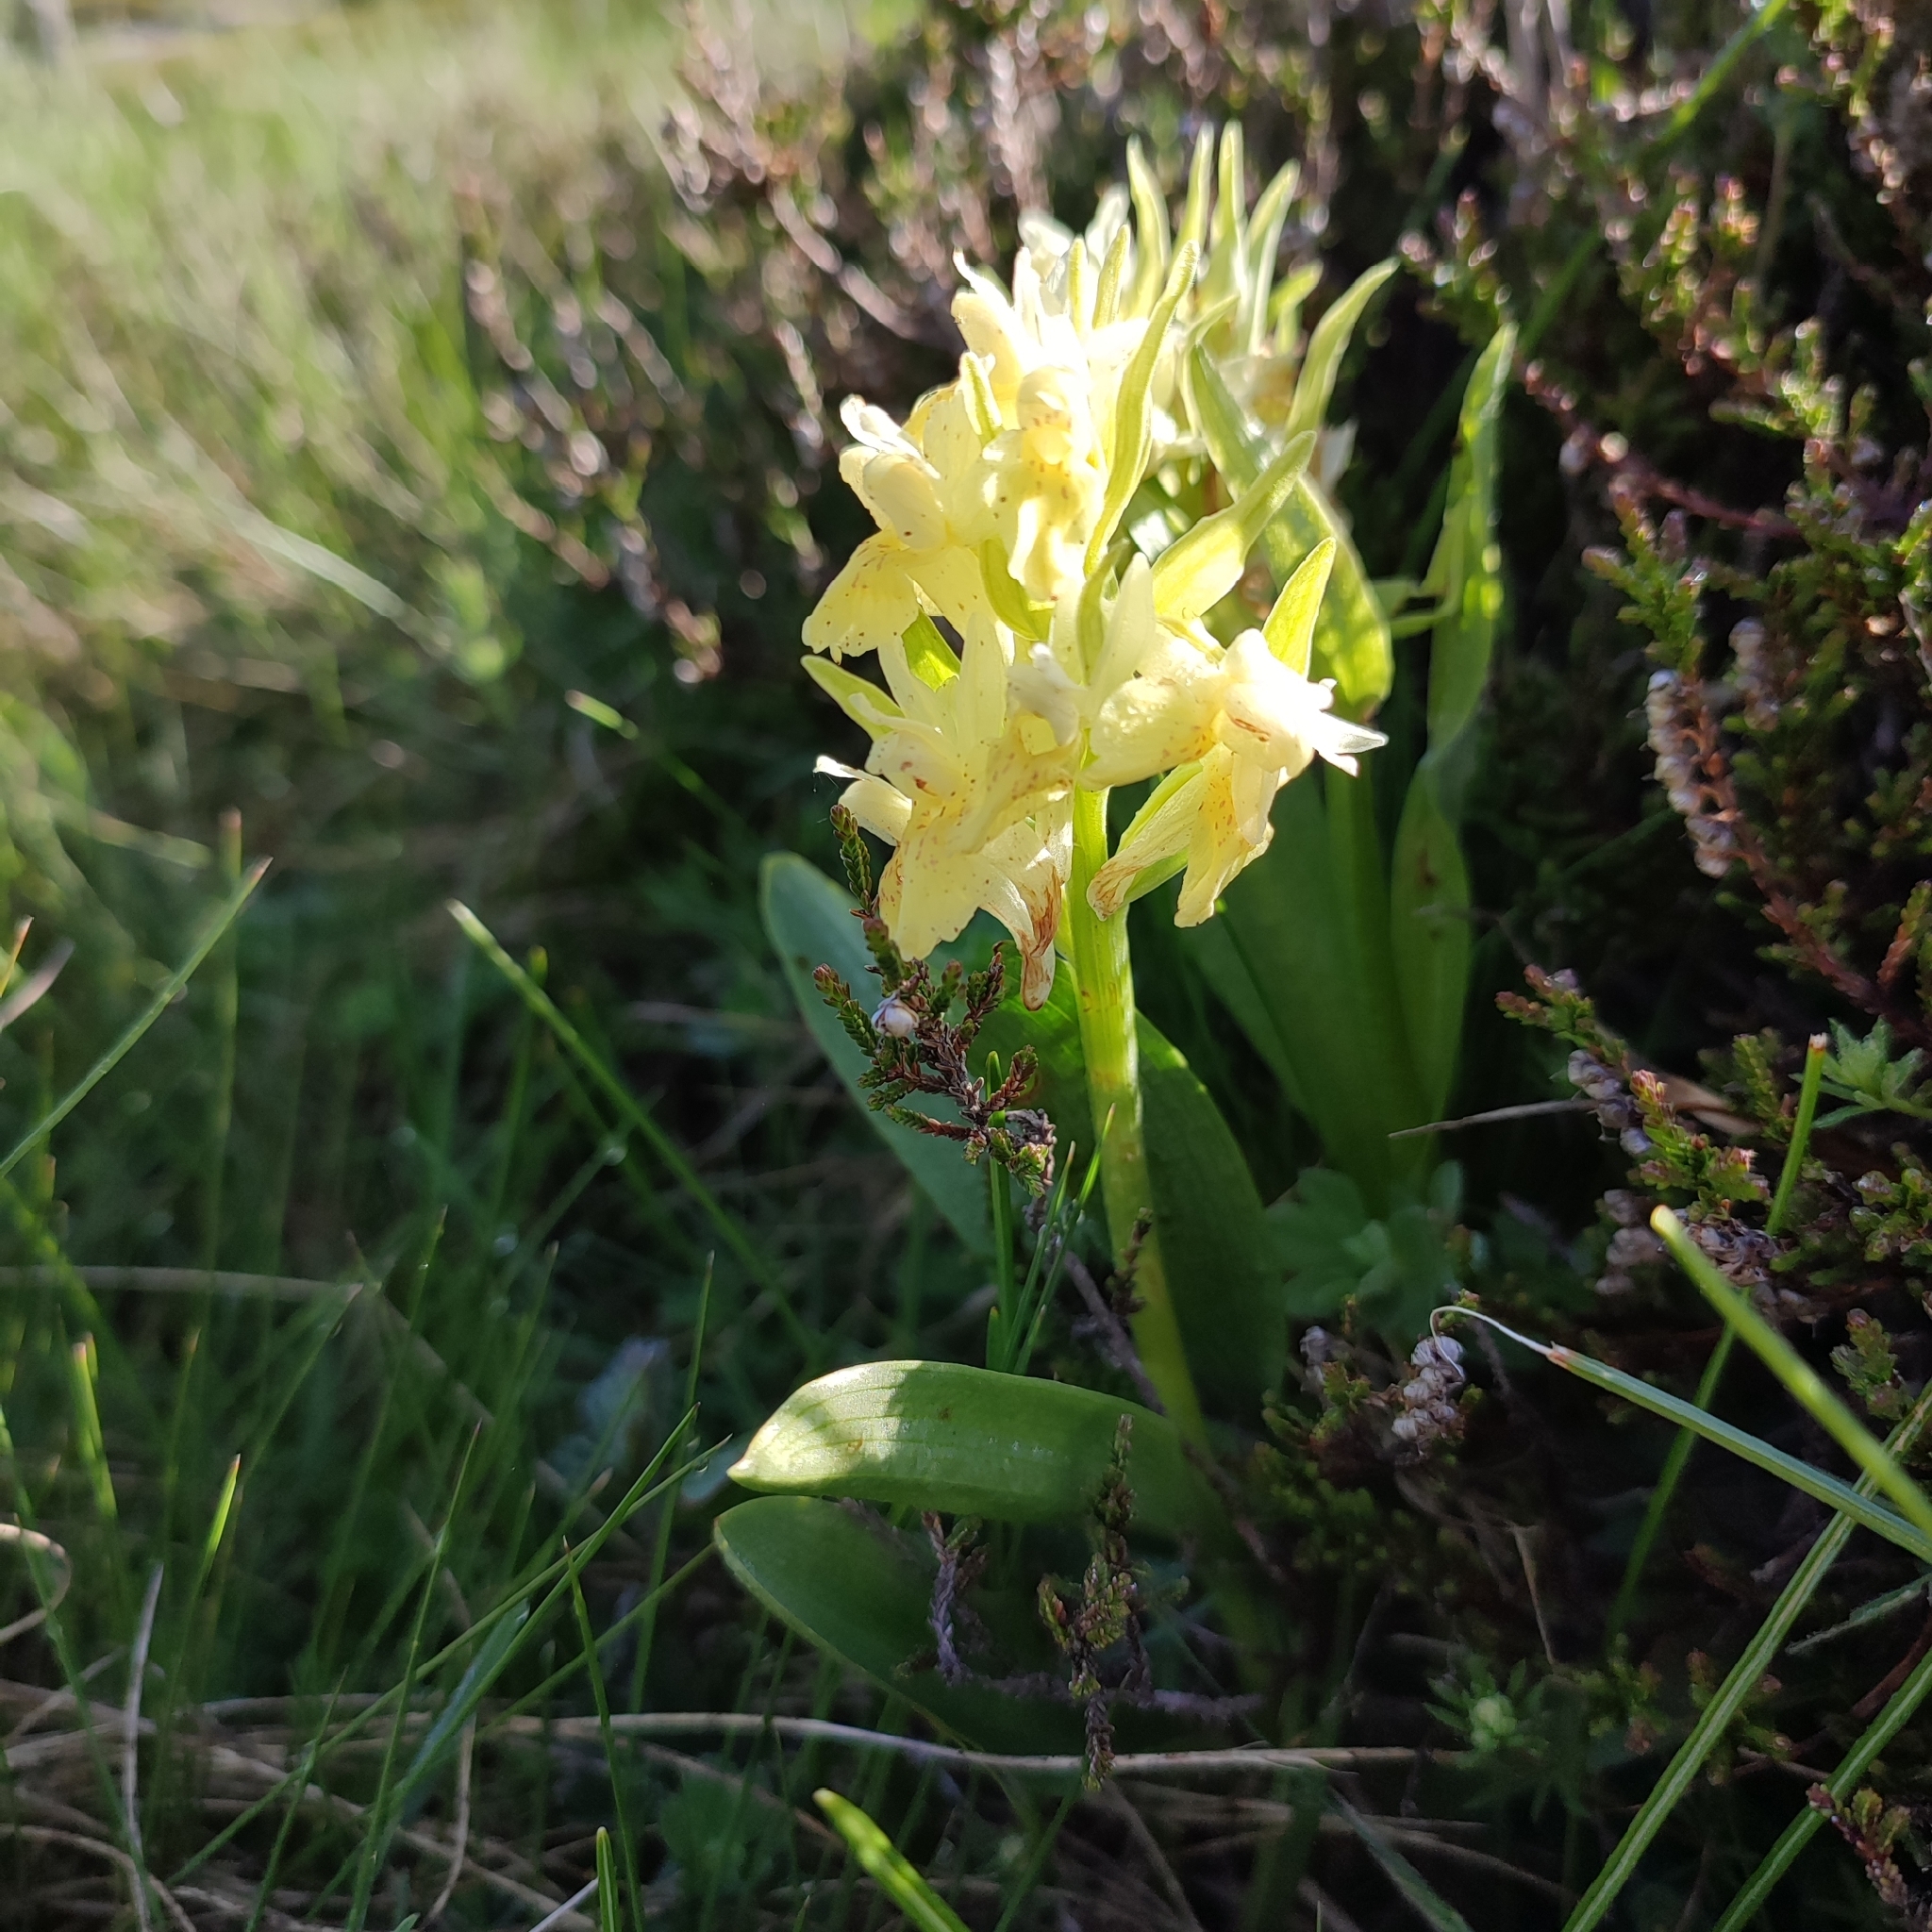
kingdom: Plantae
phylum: Tracheophyta
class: Liliopsida
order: Asparagales
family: Orchidaceae
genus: Dactylorhiza
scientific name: Dactylorhiza sambucina
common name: Elder-flowered orchid
